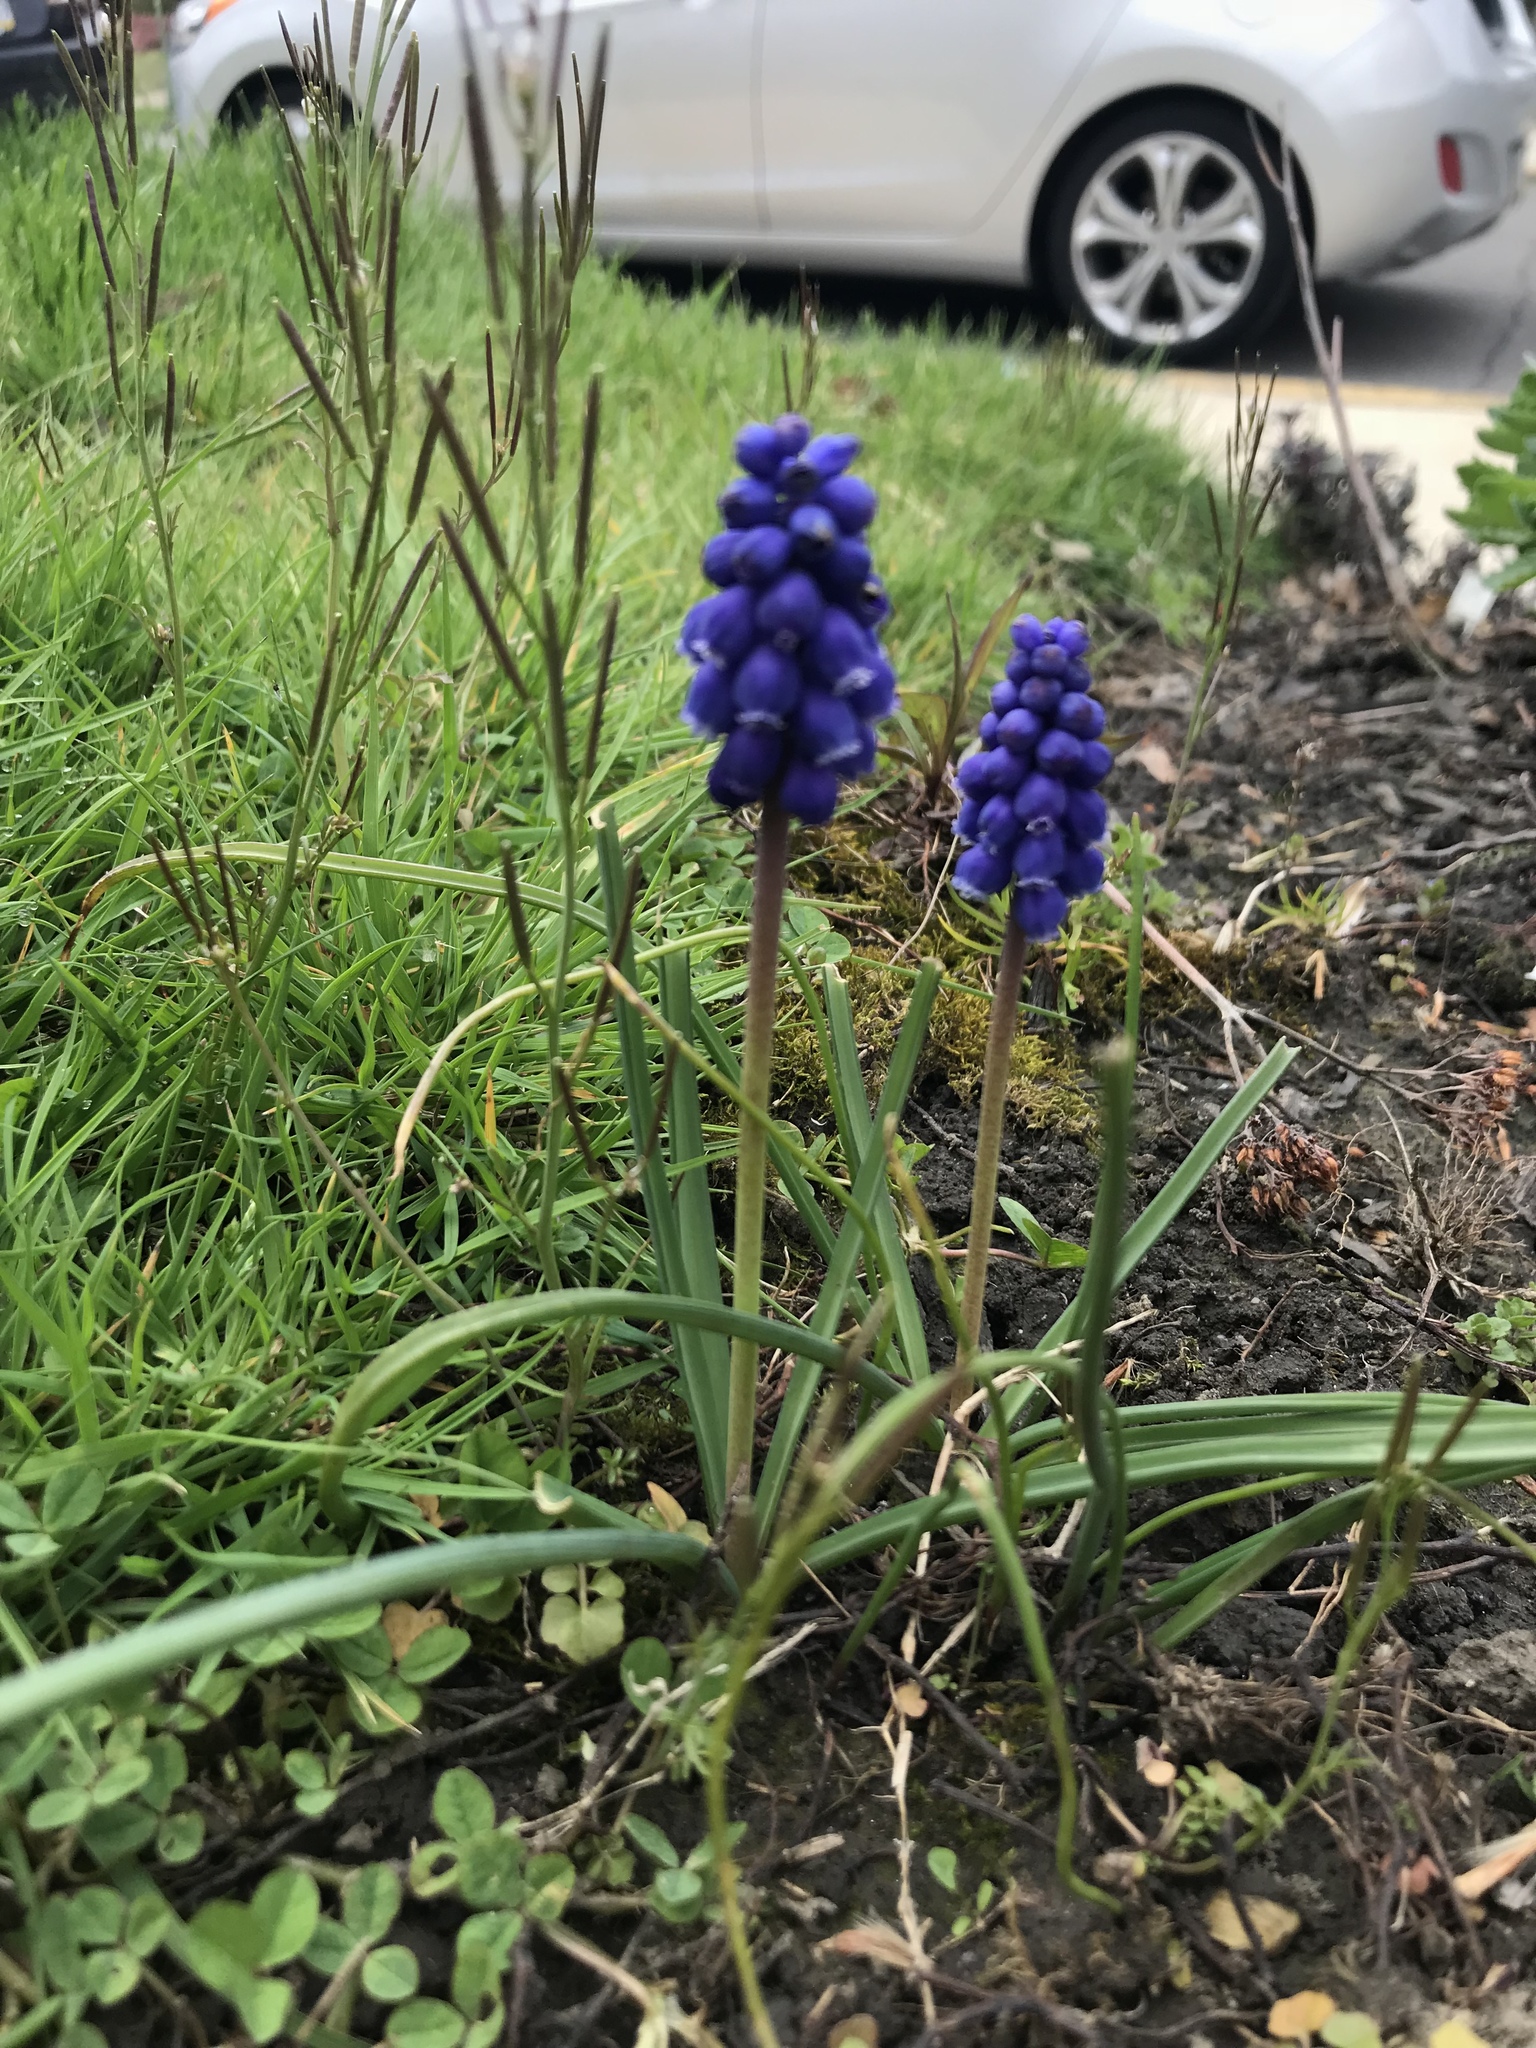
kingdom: Plantae
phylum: Tracheophyta
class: Liliopsida
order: Asparagales
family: Asparagaceae
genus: Muscari
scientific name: Muscari armeniacum
